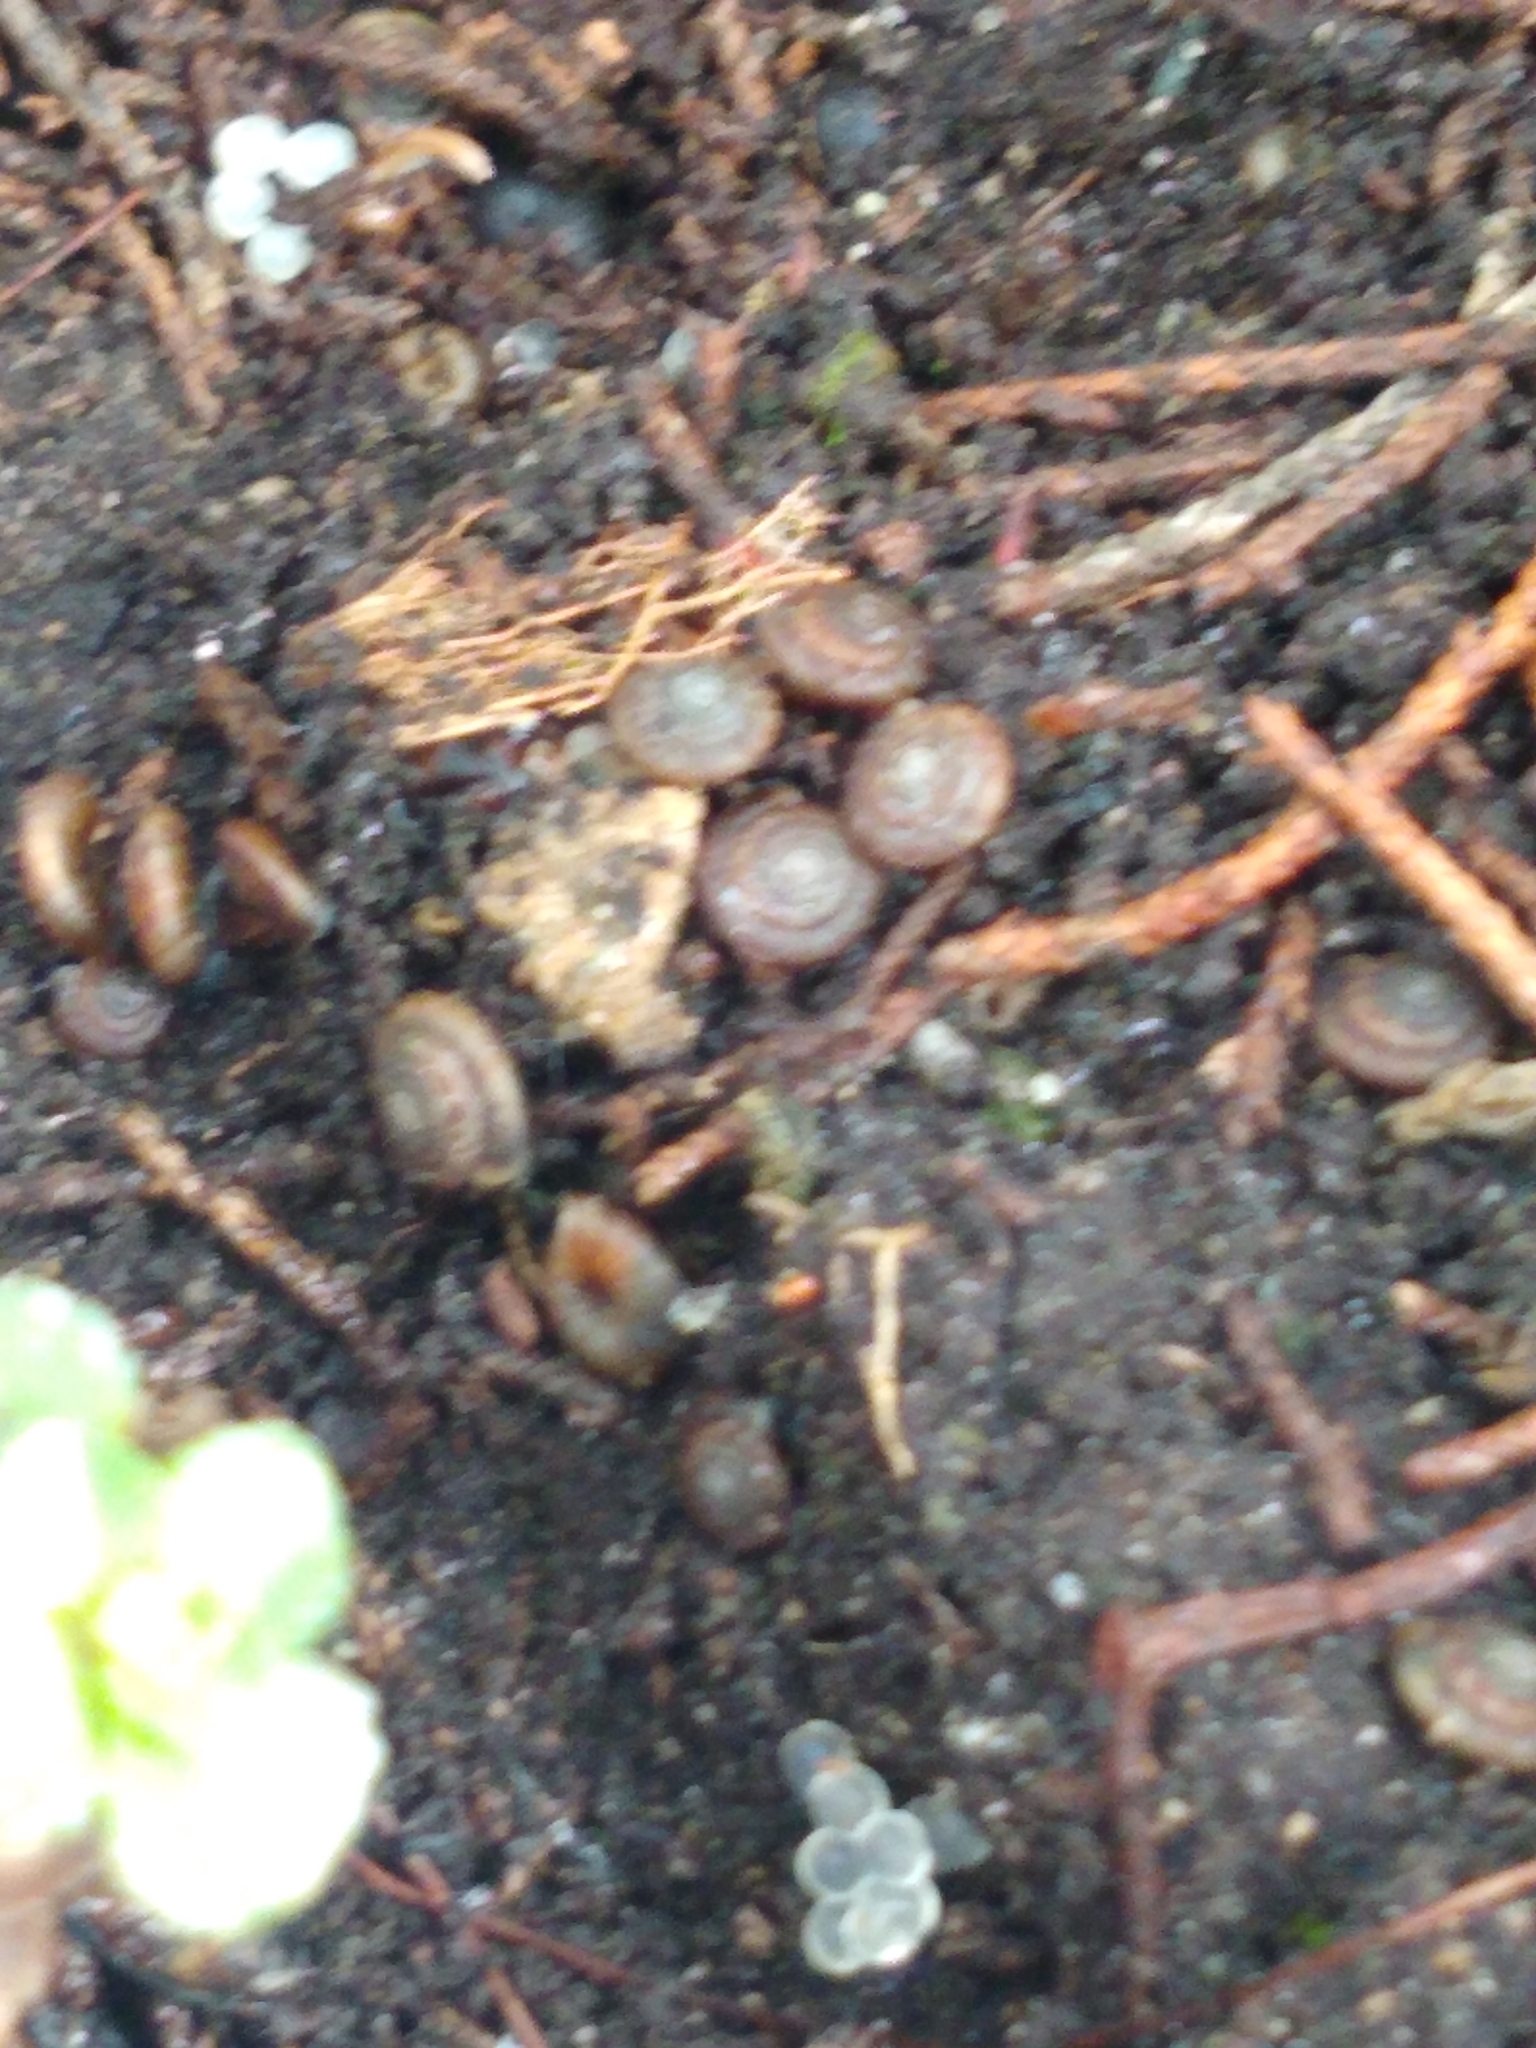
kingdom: Animalia
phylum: Mollusca
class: Gastropoda
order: Stylommatophora
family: Discidae
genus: Discus
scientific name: Discus rotundatus
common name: Rounded snail
